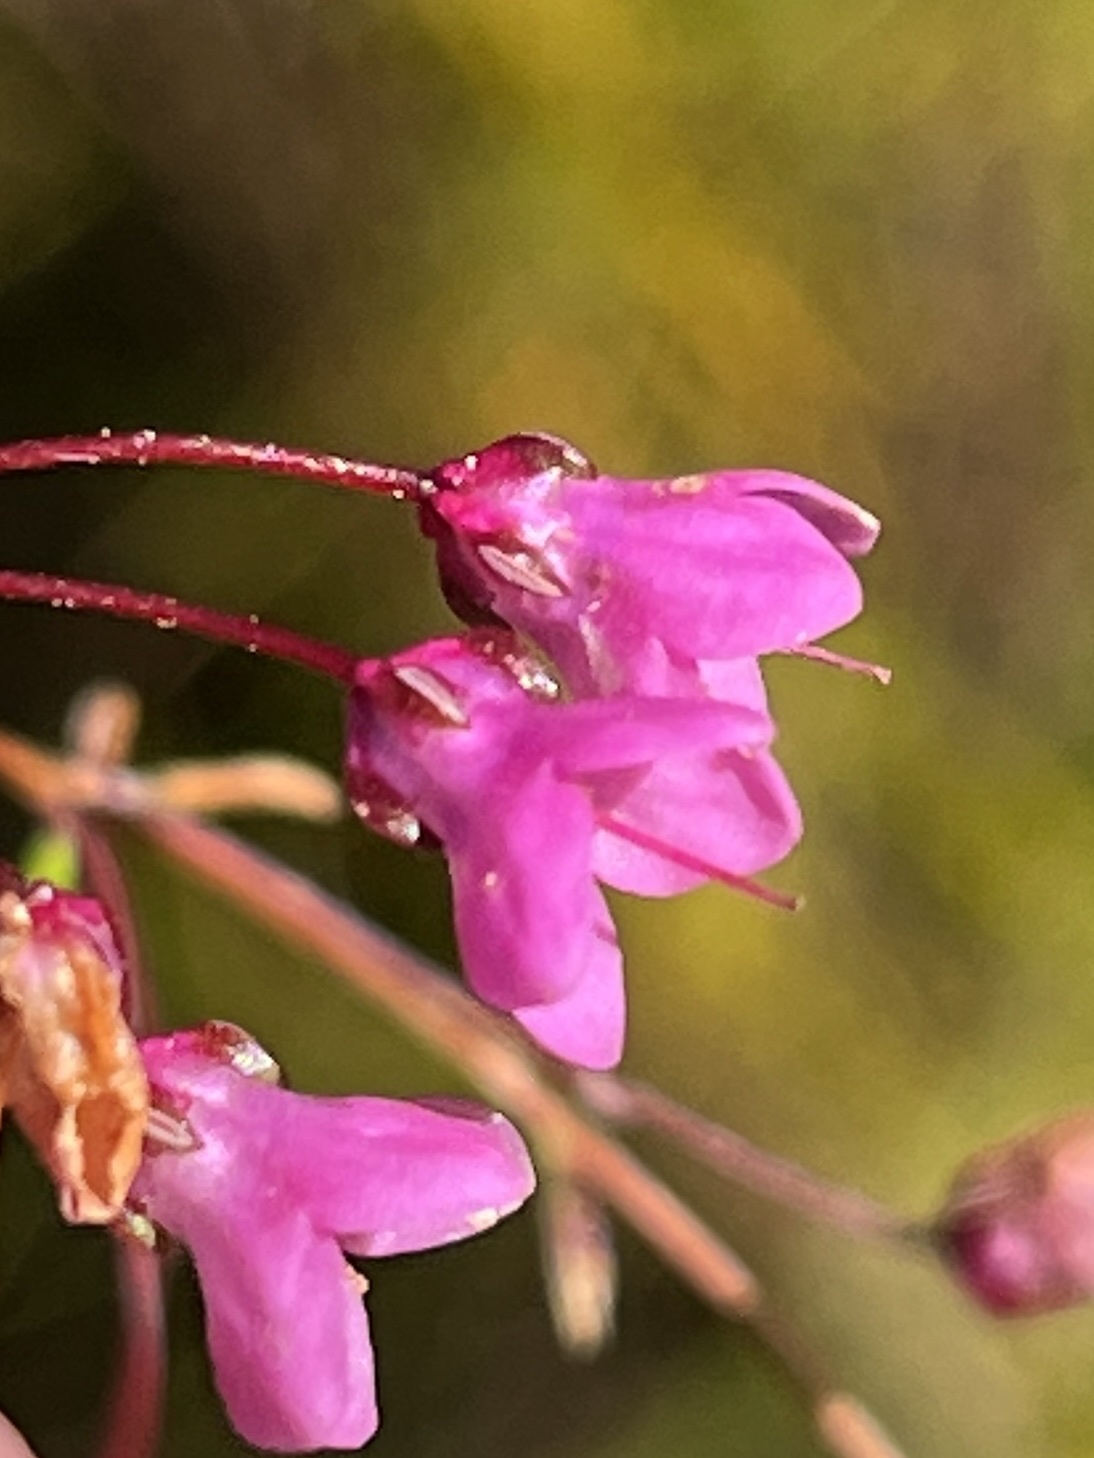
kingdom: Plantae
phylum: Tracheophyta
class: Magnoliopsida
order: Ericales
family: Ericaceae
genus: Erica
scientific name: Erica tetrathecoides
